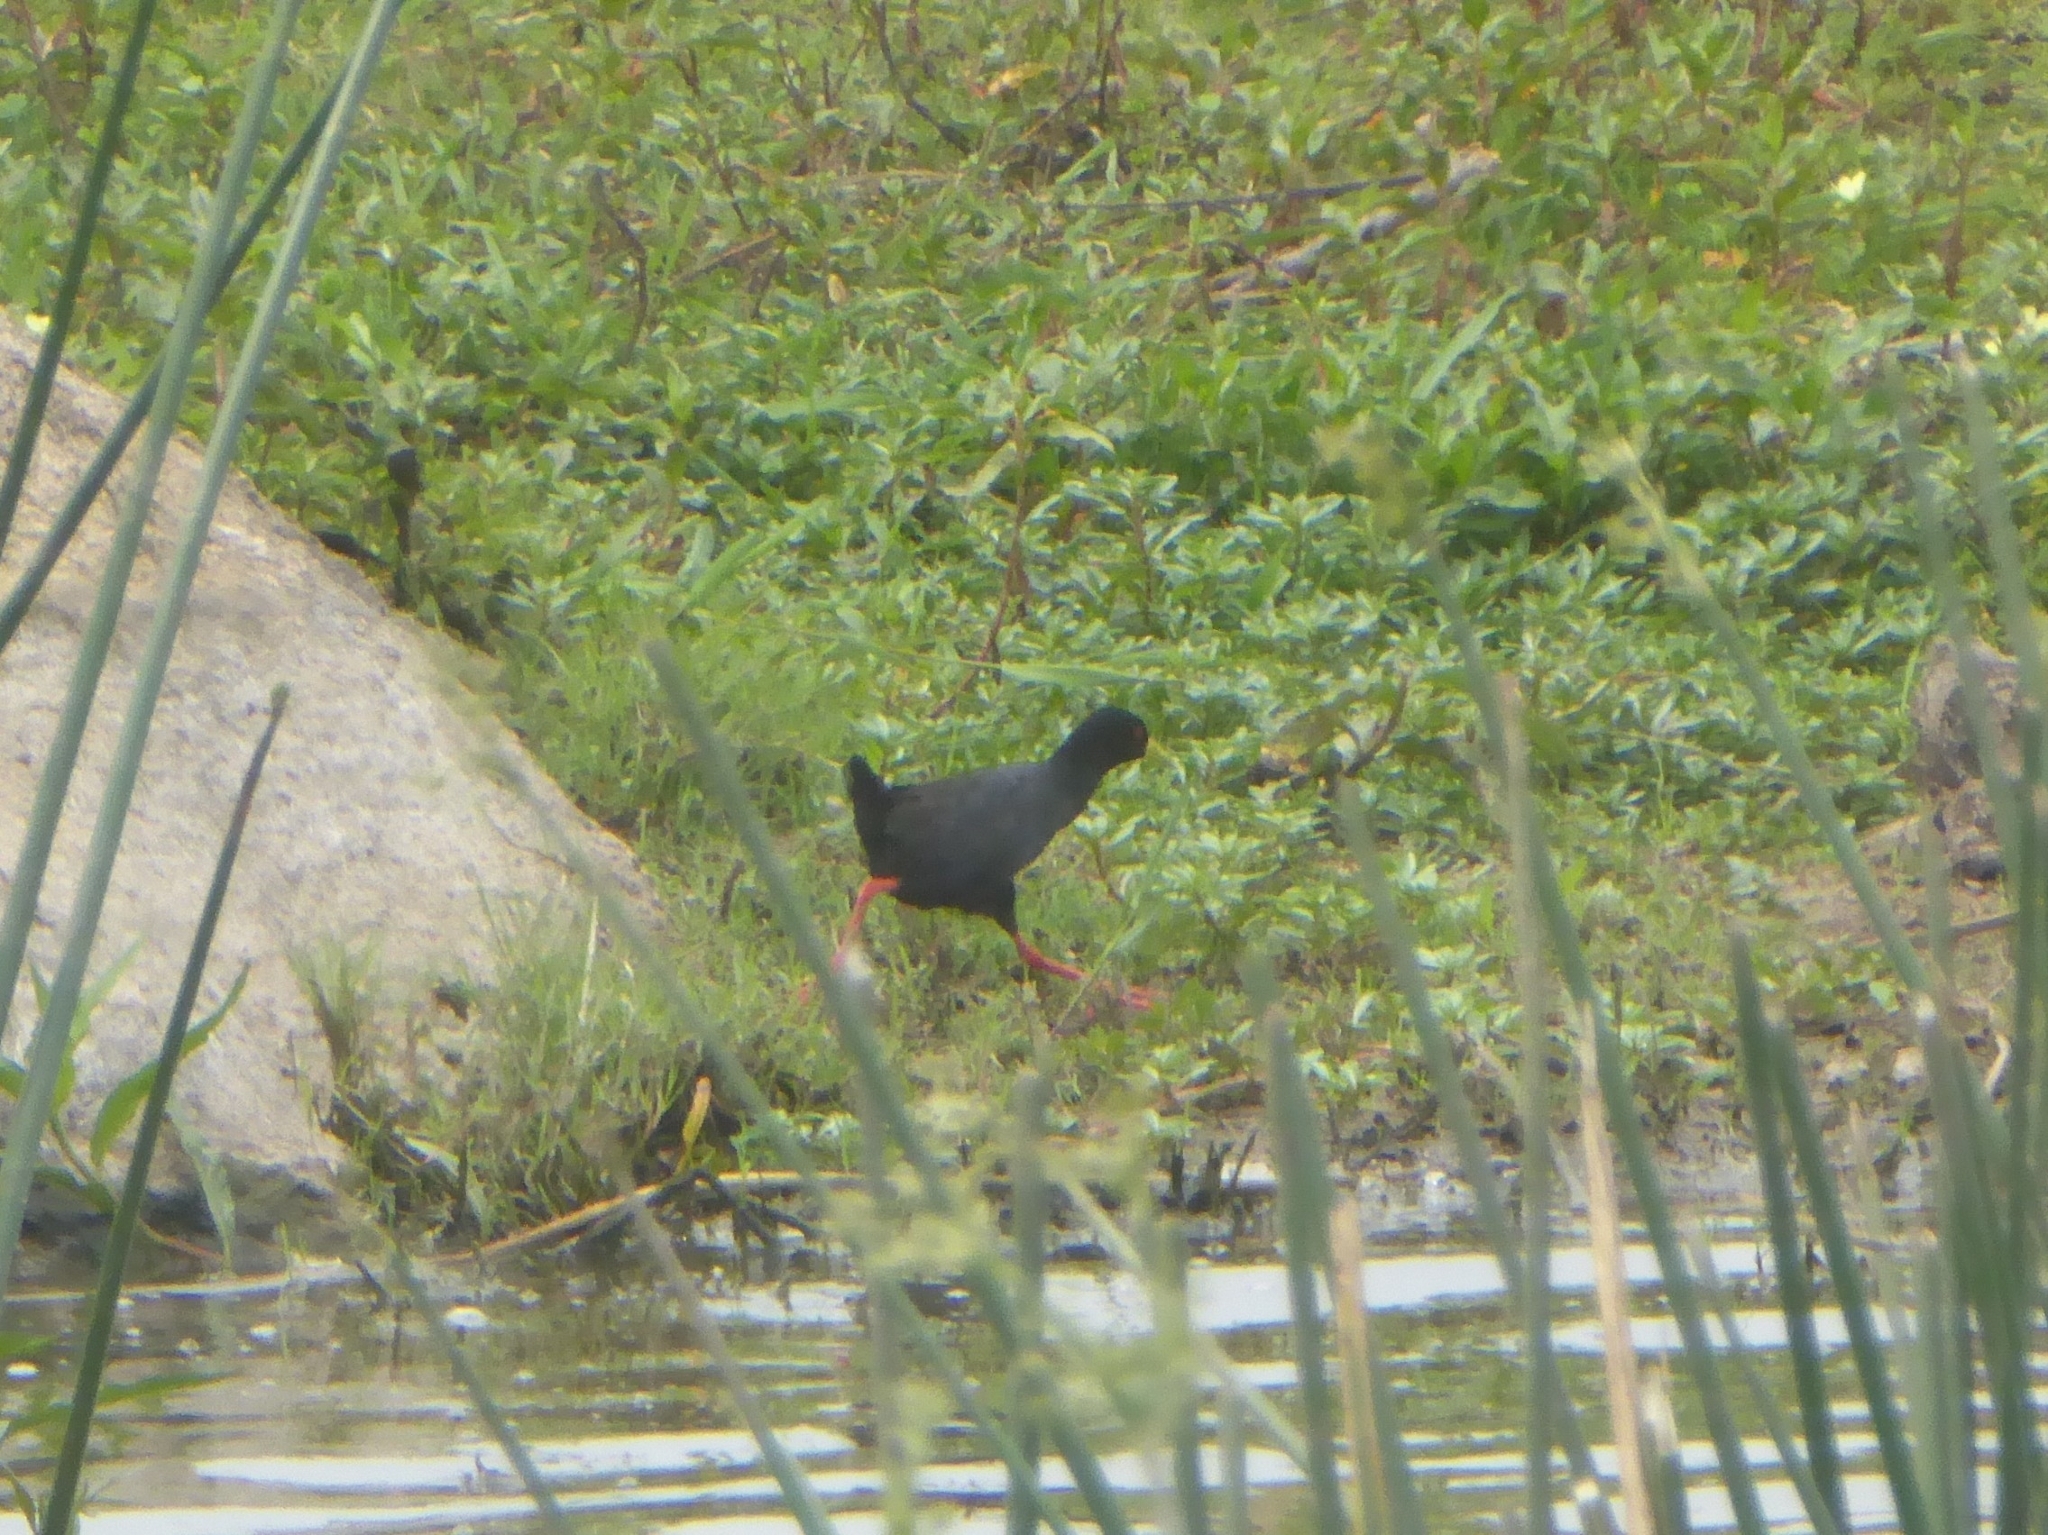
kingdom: Animalia
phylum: Chordata
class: Aves
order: Gruiformes
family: Rallidae
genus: Amaurornis
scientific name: Amaurornis flavirostra
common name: Black crake
